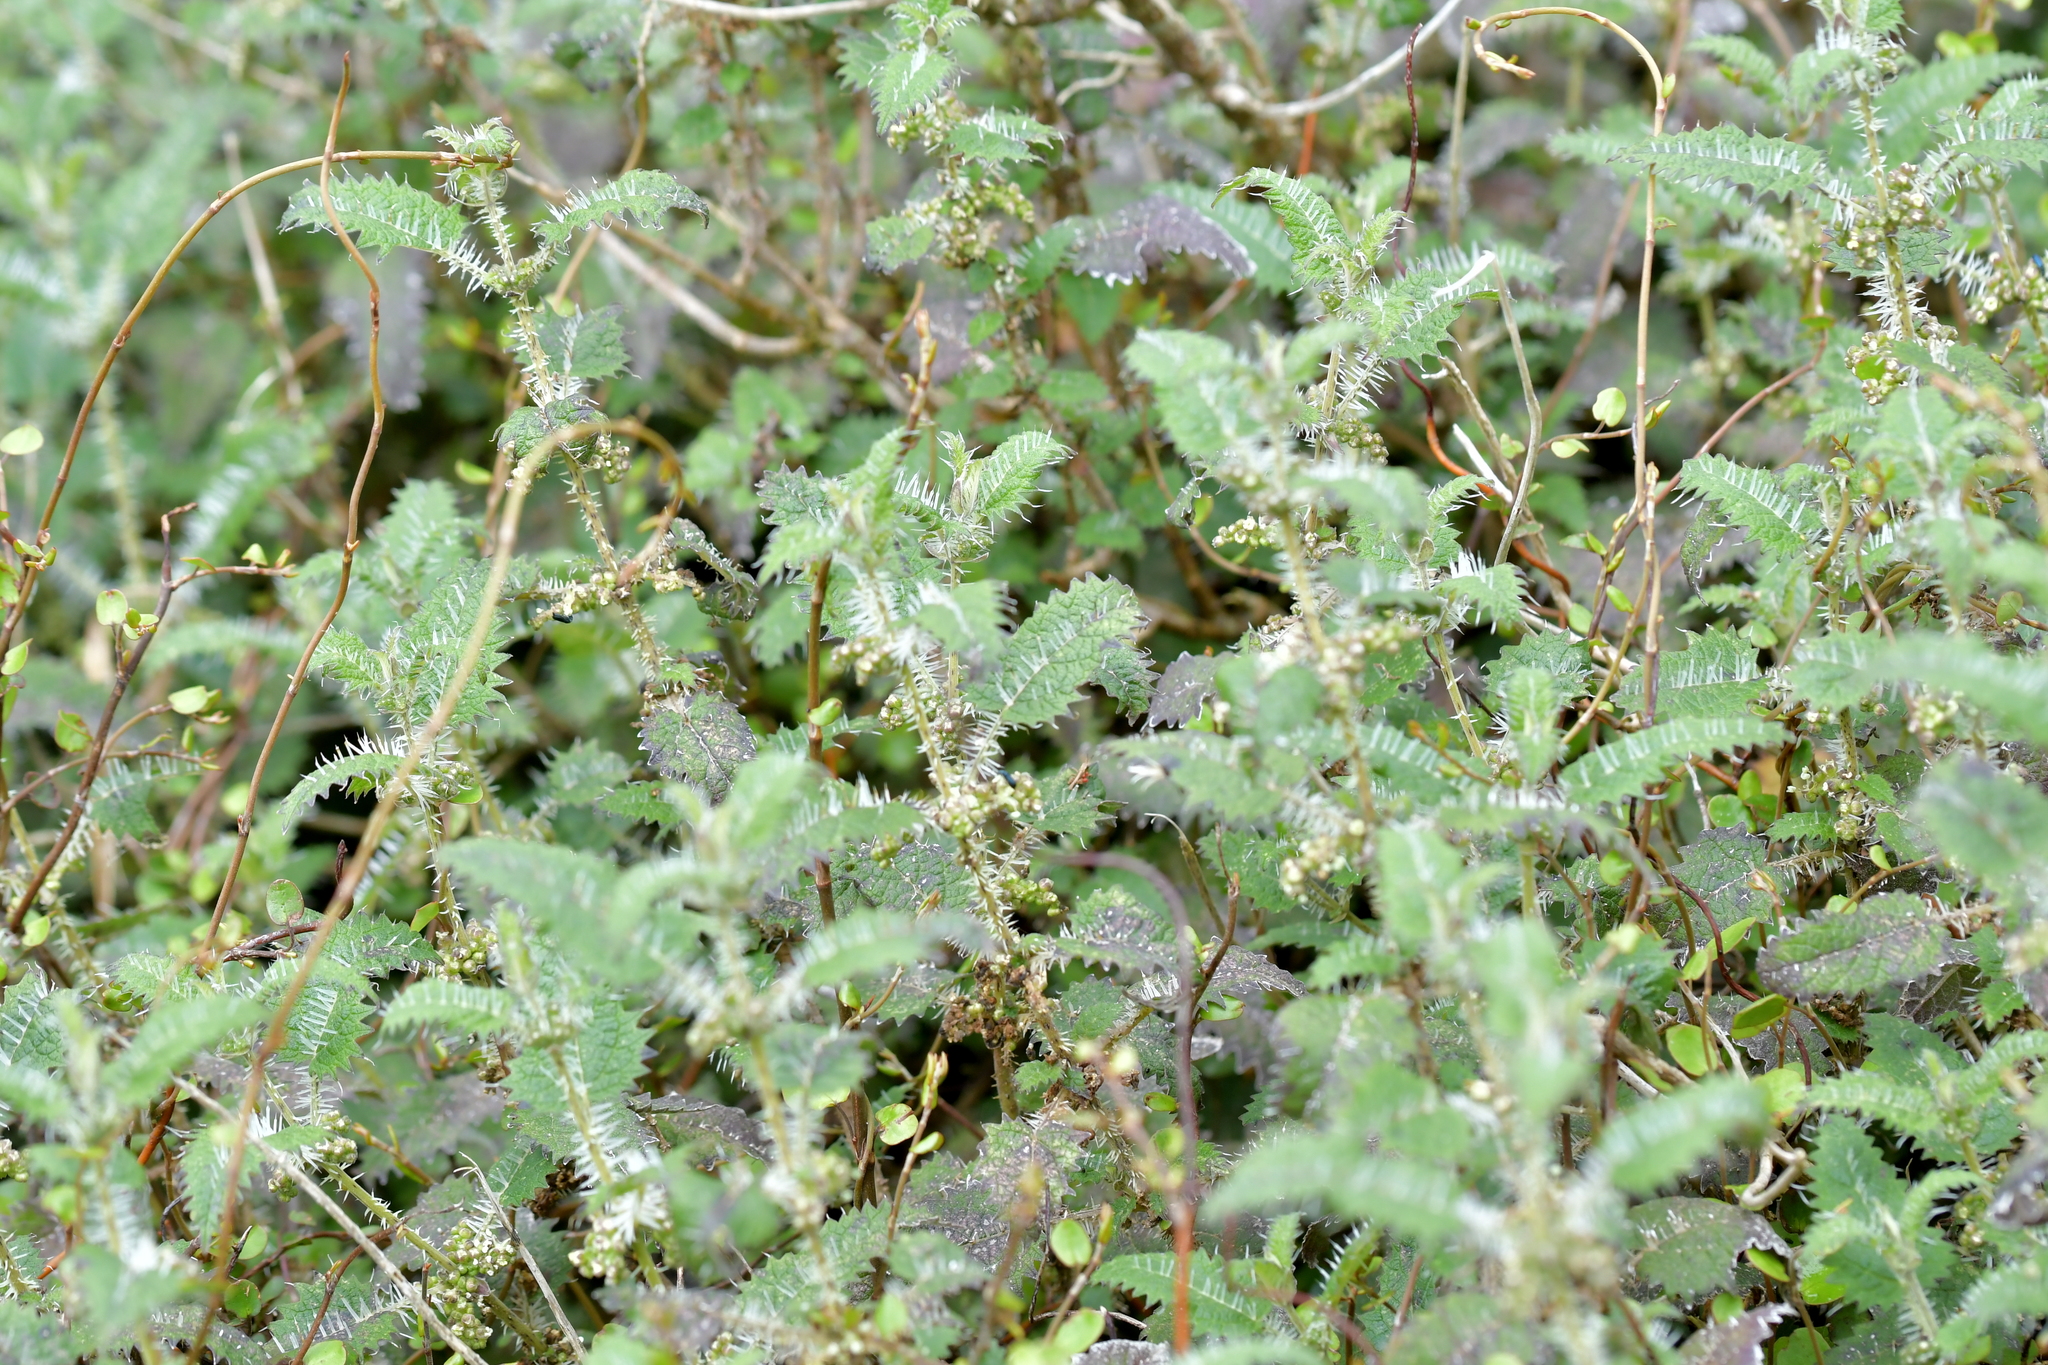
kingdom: Plantae
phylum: Tracheophyta
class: Magnoliopsida
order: Rosales
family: Urticaceae
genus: Urtica
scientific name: Urtica ferox
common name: Tree nettle
